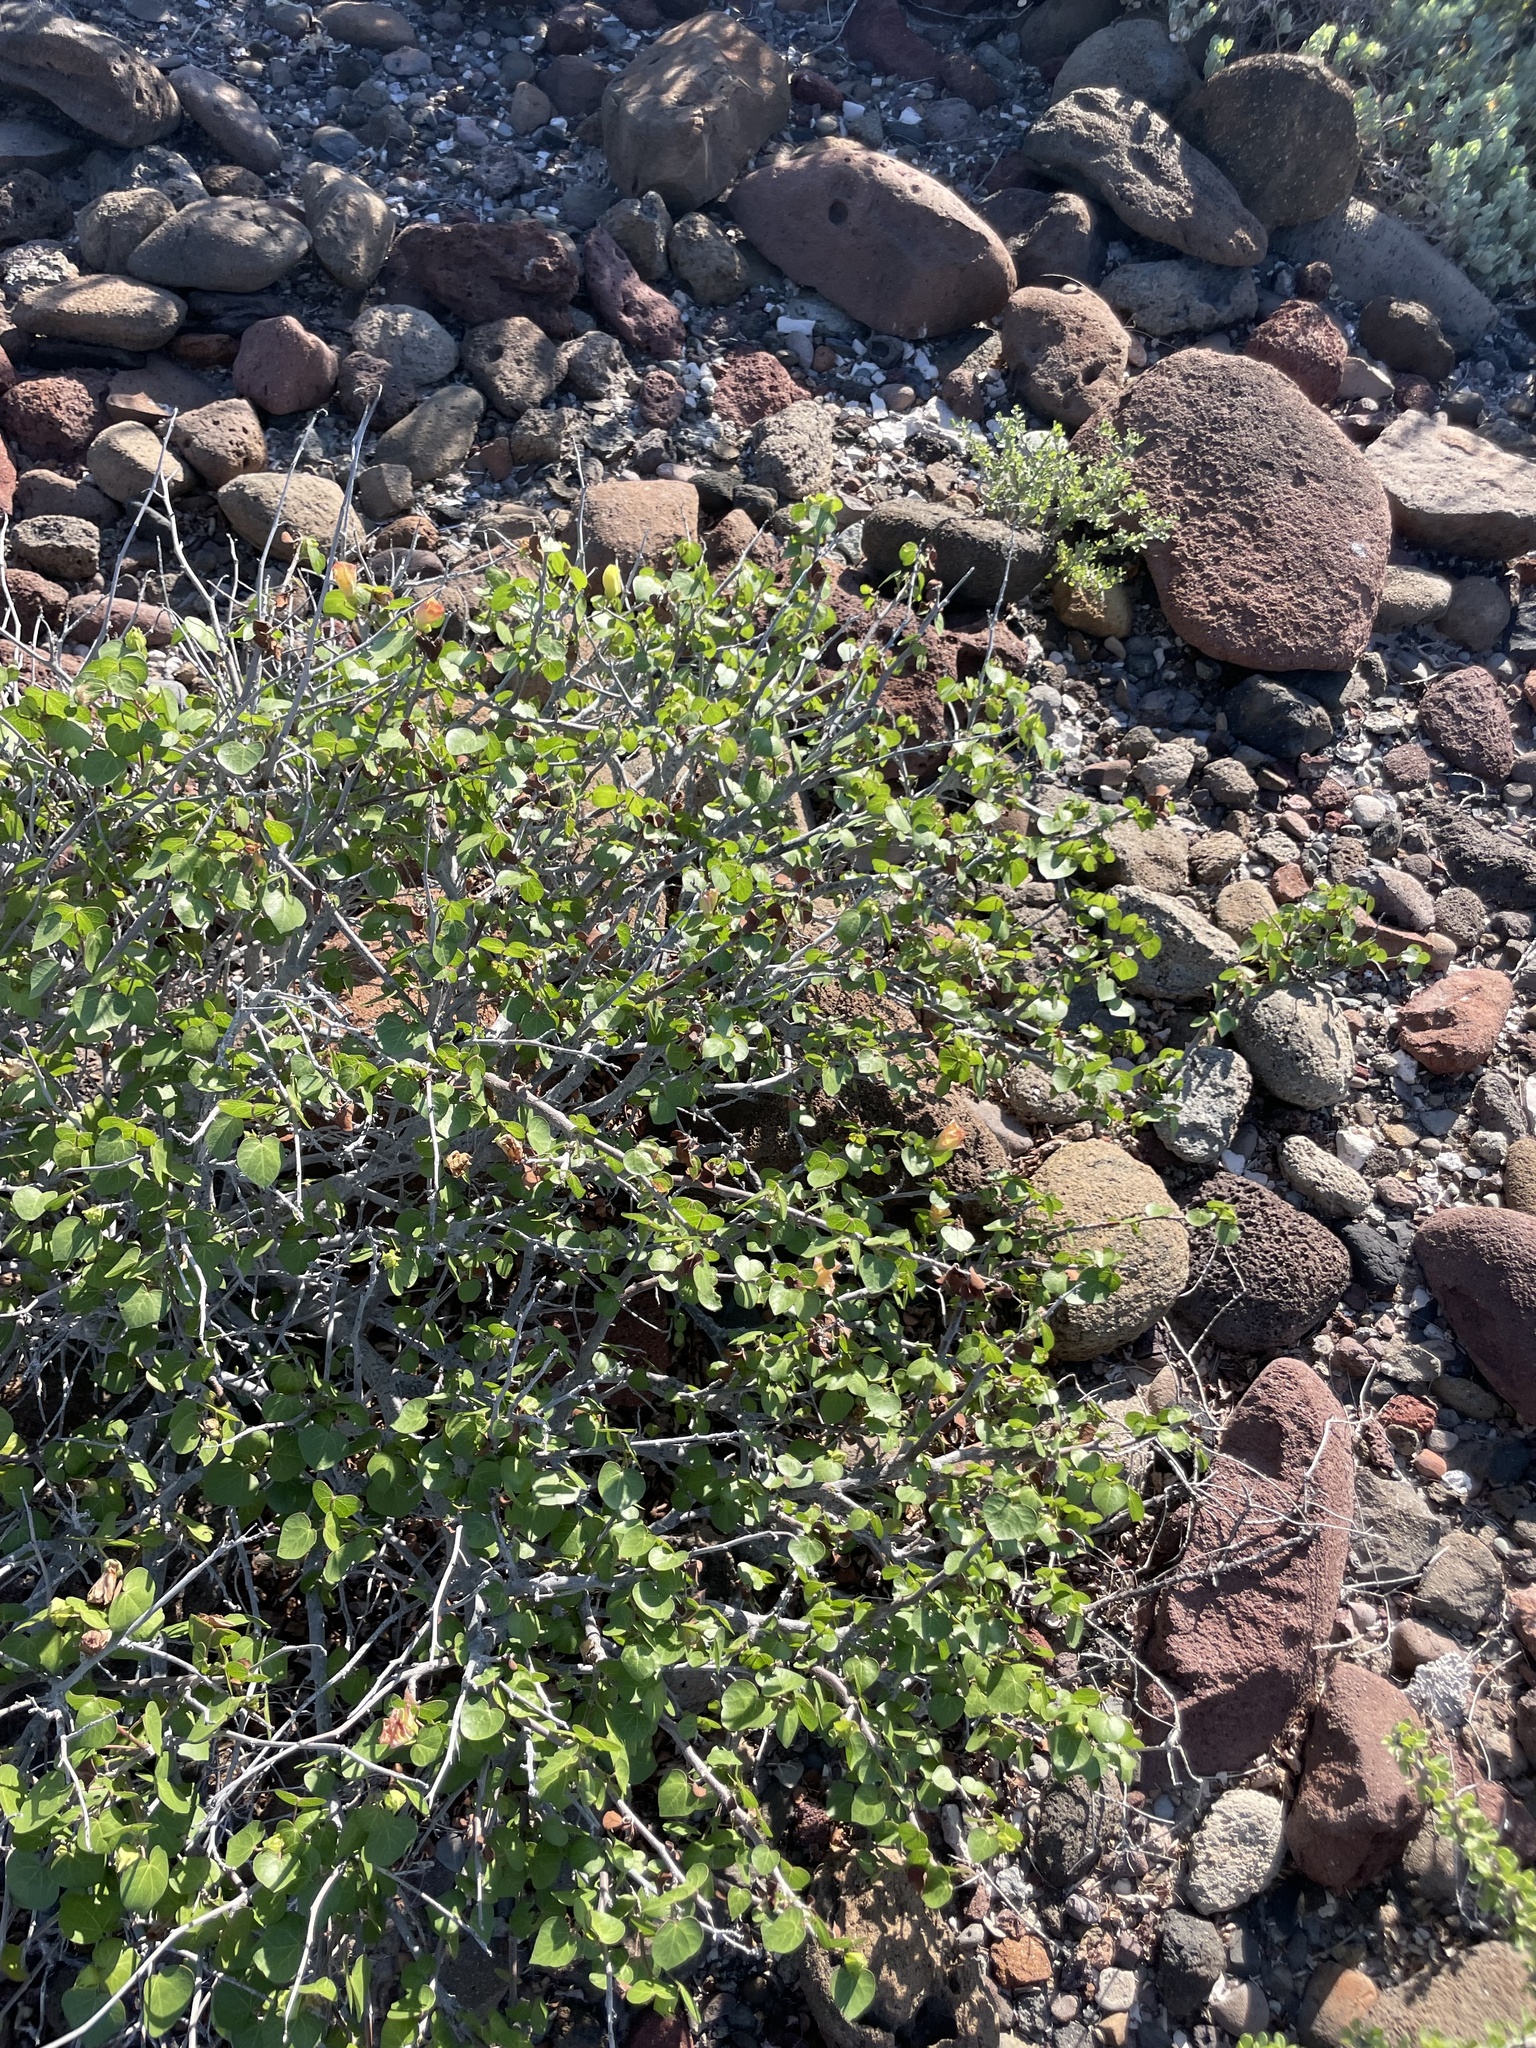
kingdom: Plantae
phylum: Tracheophyta
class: Magnoliopsida
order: Malvales
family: Malvaceae
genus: Gossypium
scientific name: Gossypium harknessii
